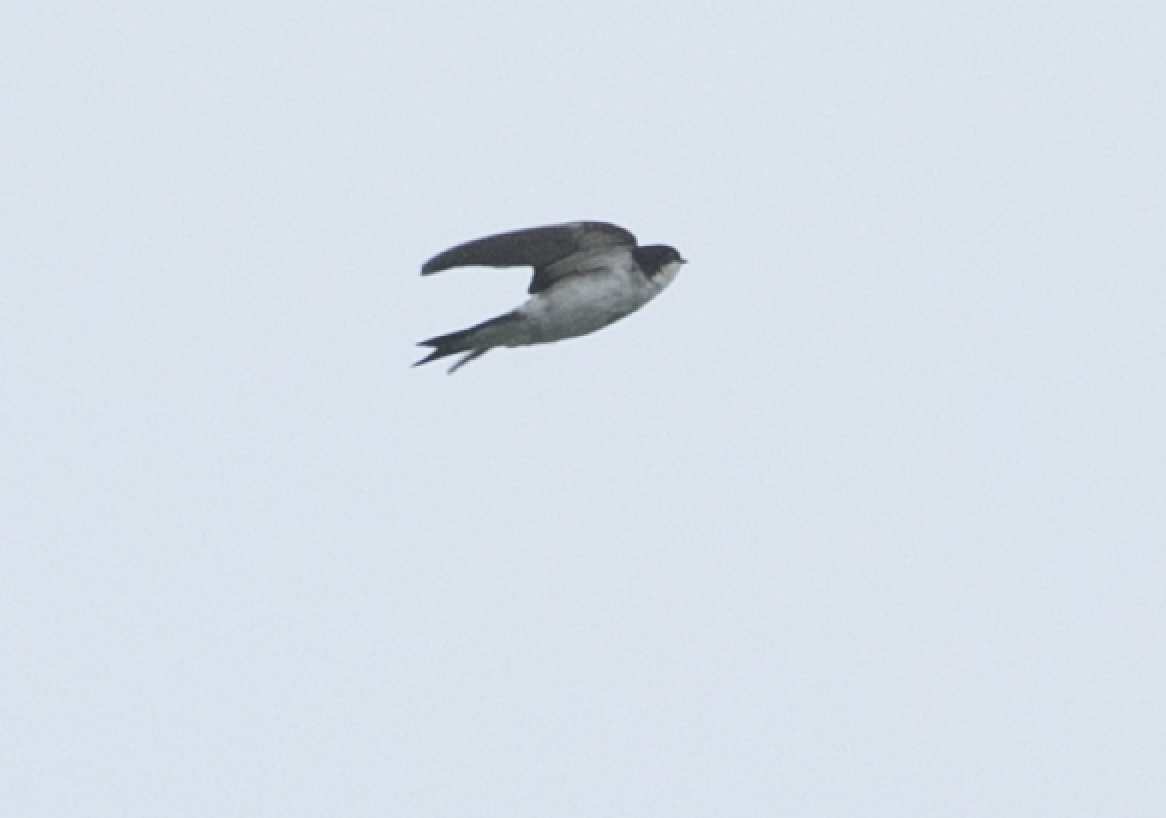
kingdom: Animalia
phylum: Chordata
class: Aves
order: Passeriformes
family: Hirundinidae
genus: Delichon
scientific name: Delichon urbicum
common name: Common house martin
